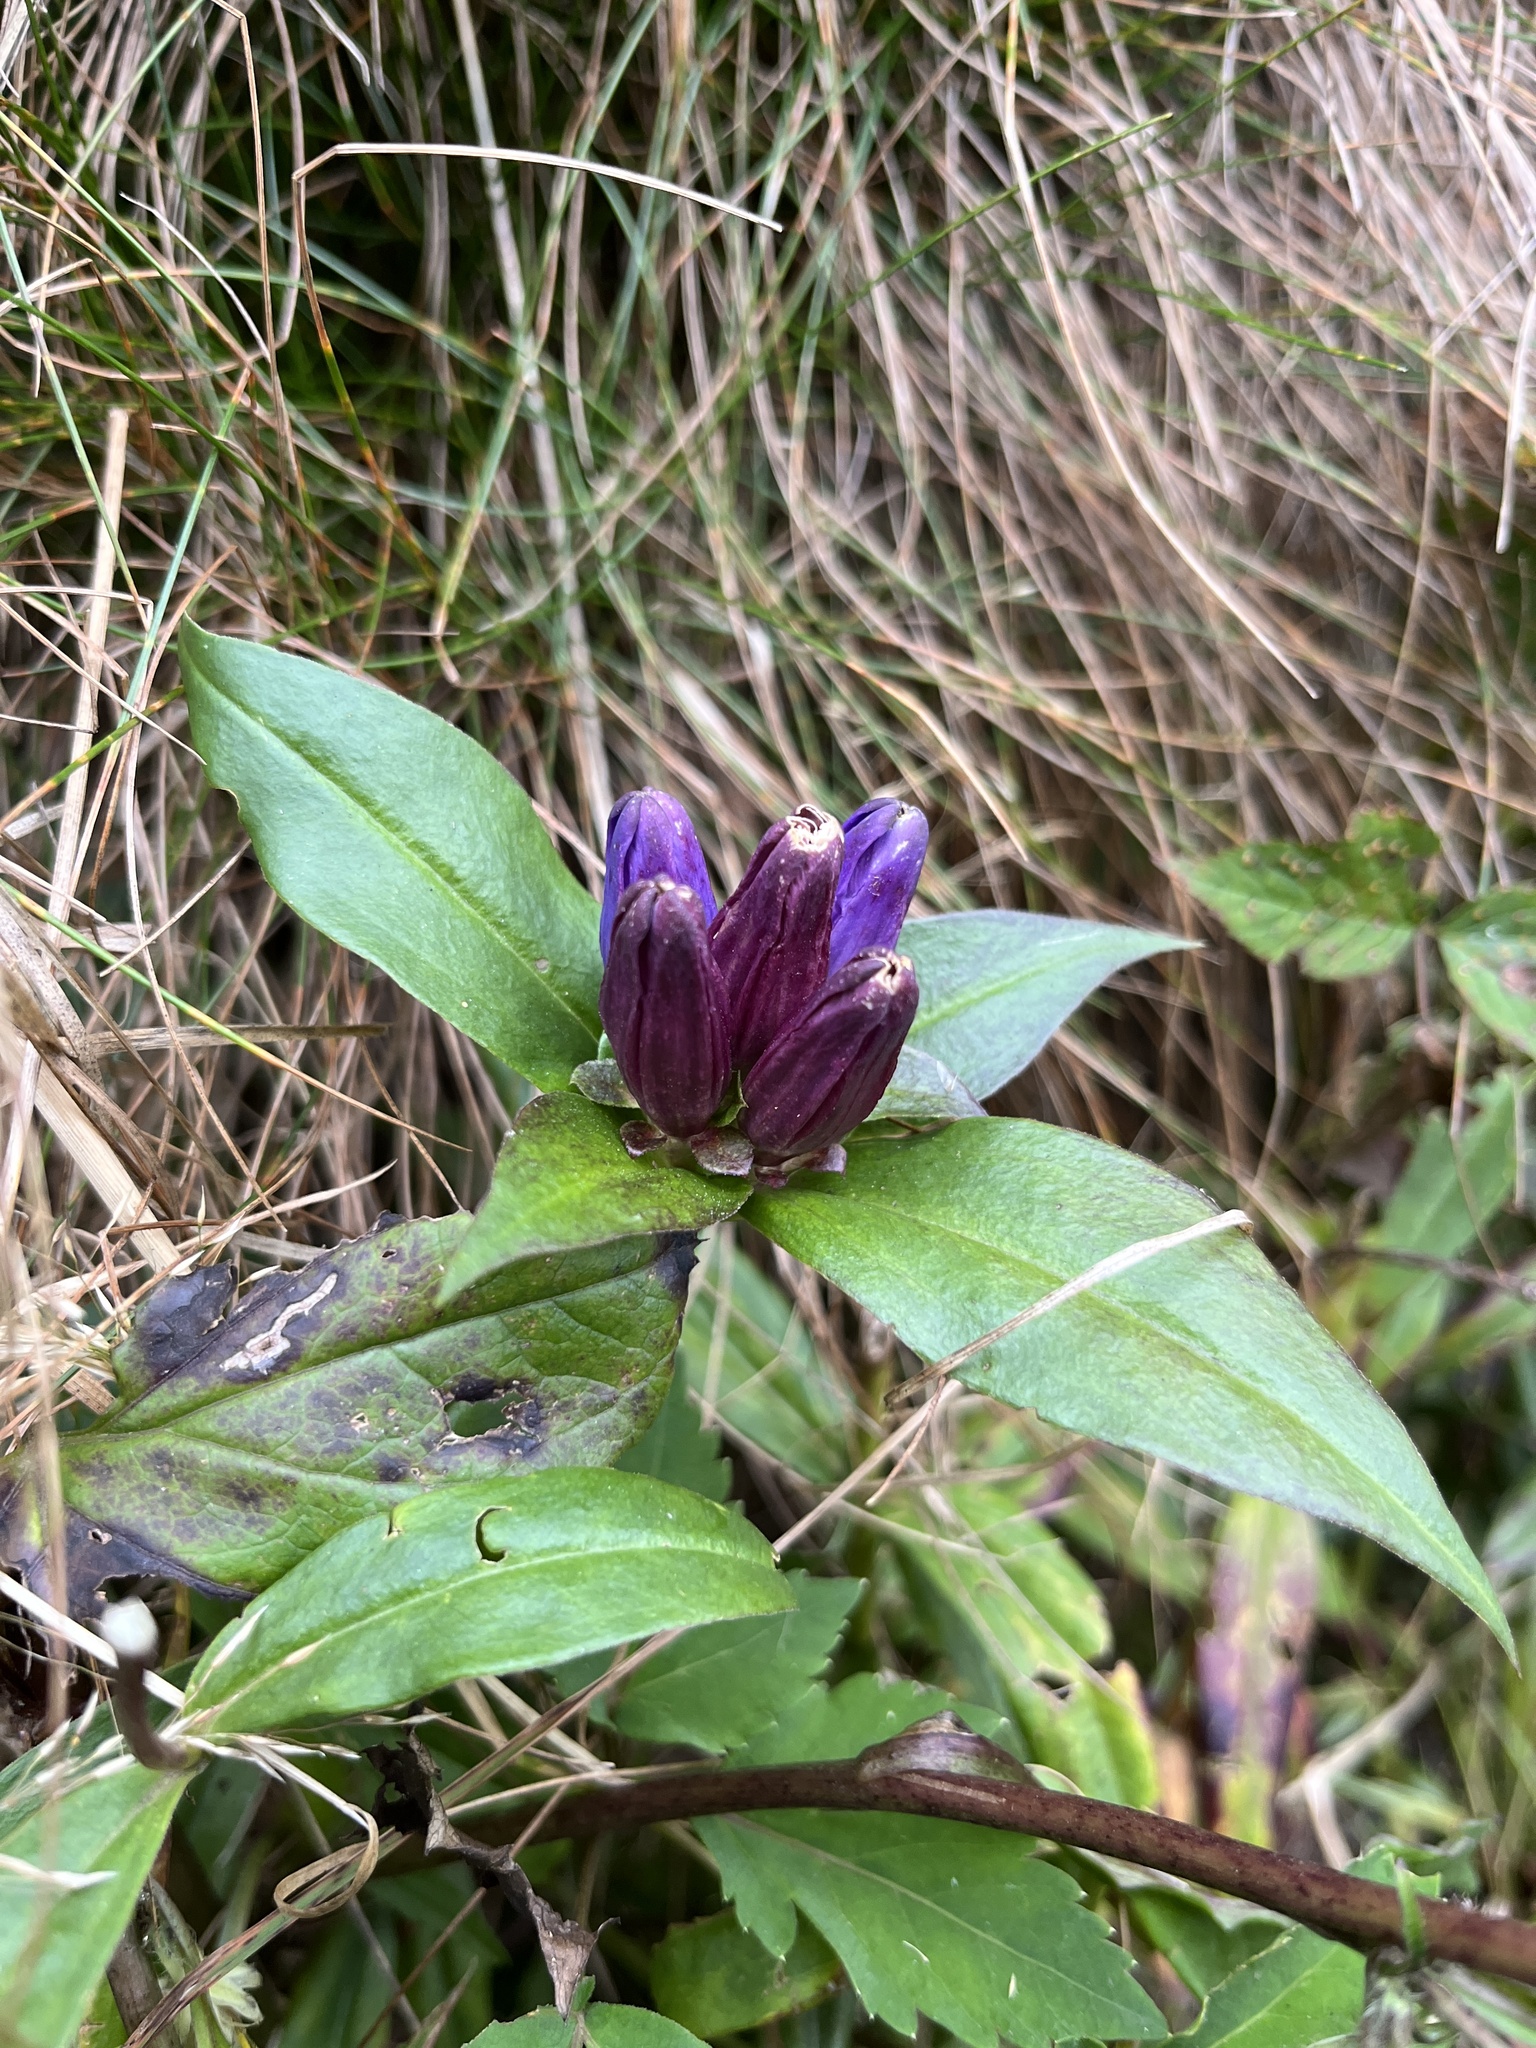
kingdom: Plantae
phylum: Tracheophyta
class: Magnoliopsida
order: Gentianales
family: Gentianaceae
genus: Gentiana
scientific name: Gentiana clausa
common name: Blind gentian
